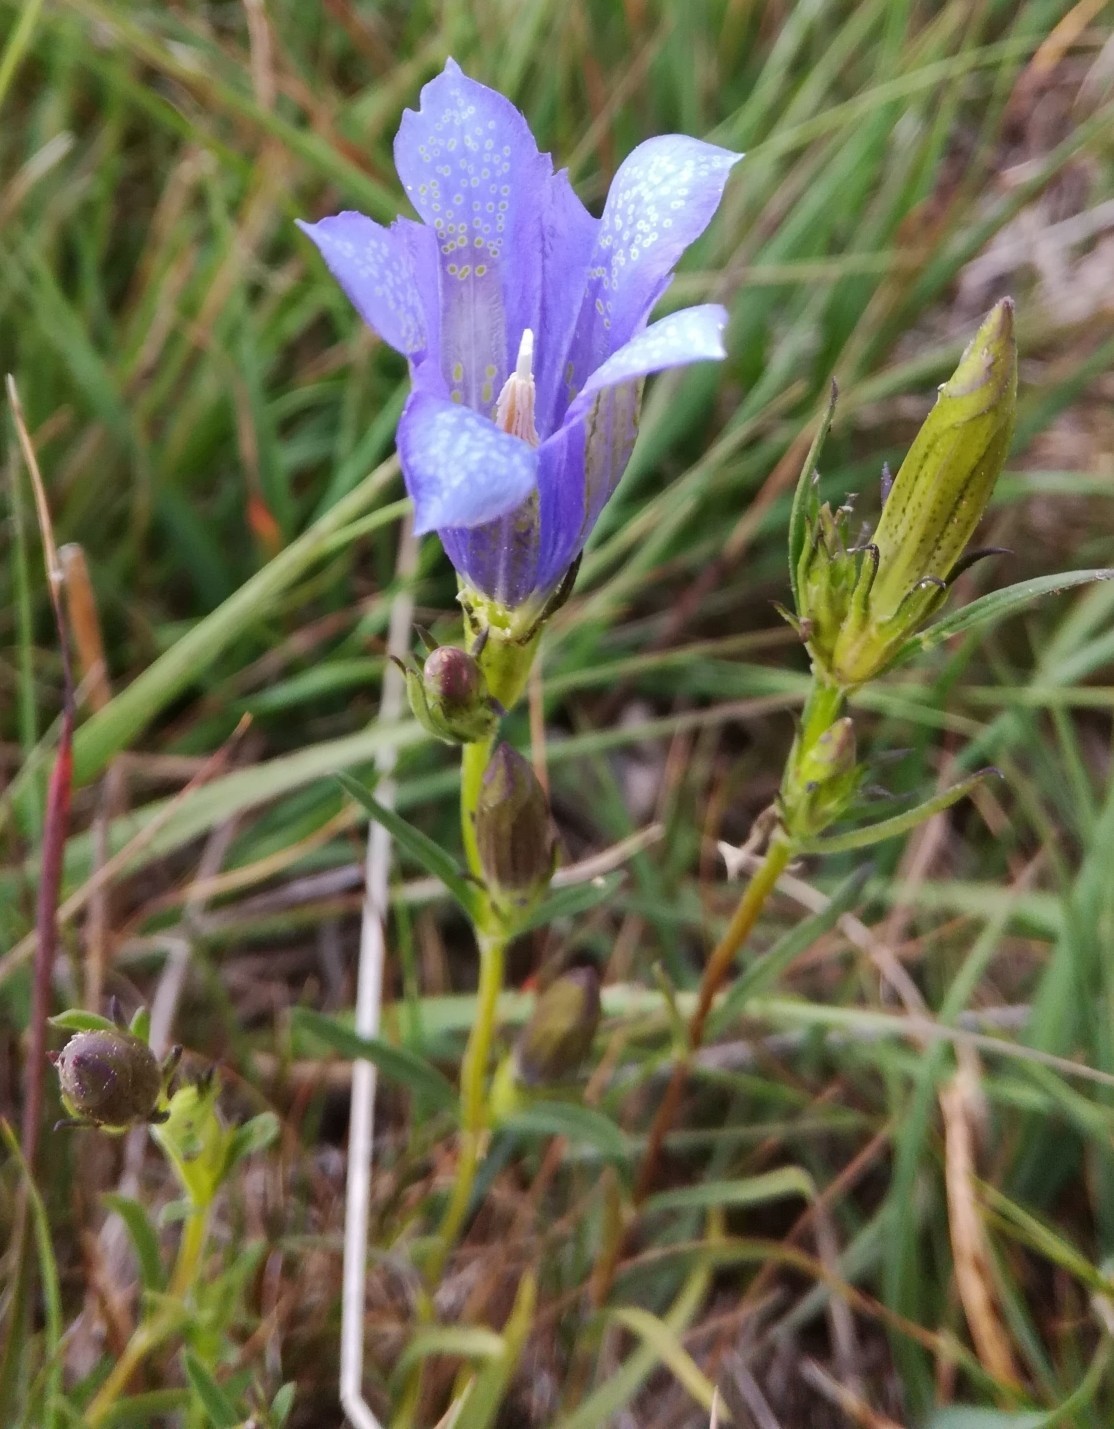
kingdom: Plantae
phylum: Tracheophyta
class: Magnoliopsida
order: Gentianales
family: Gentianaceae
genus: Gentiana
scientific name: Gentiana pneumonanthe
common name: Marsh gentian
